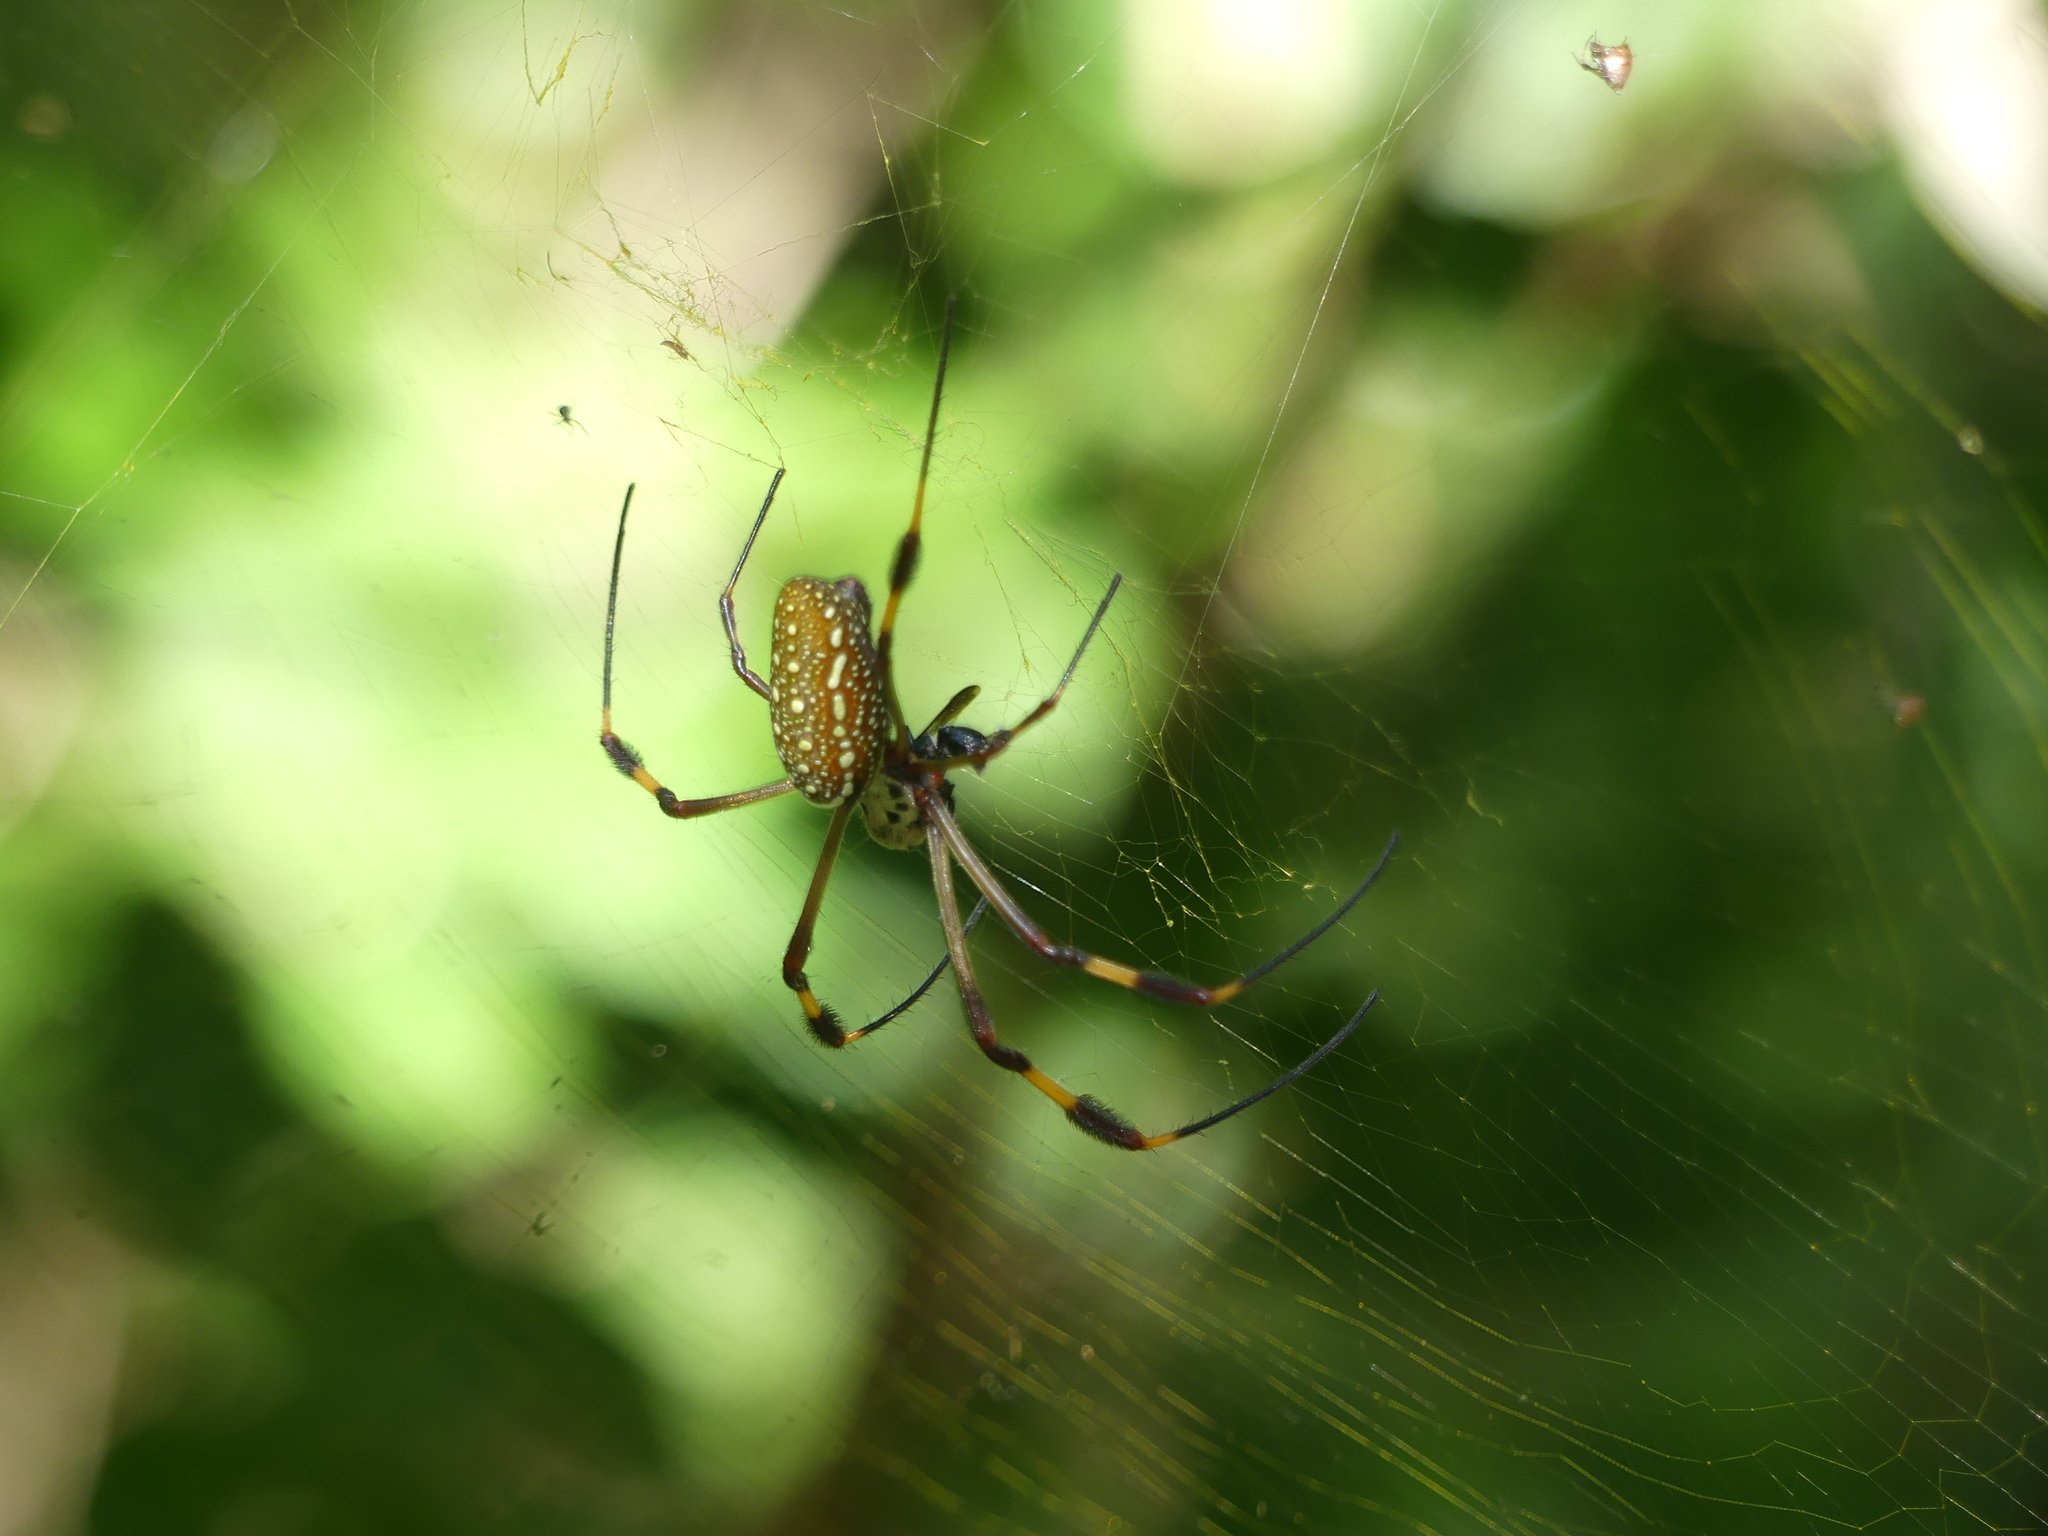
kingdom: Animalia
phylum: Arthropoda
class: Arachnida
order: Araneae
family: Araneidae
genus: Trichonephila
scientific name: Trichonephila clavipes
